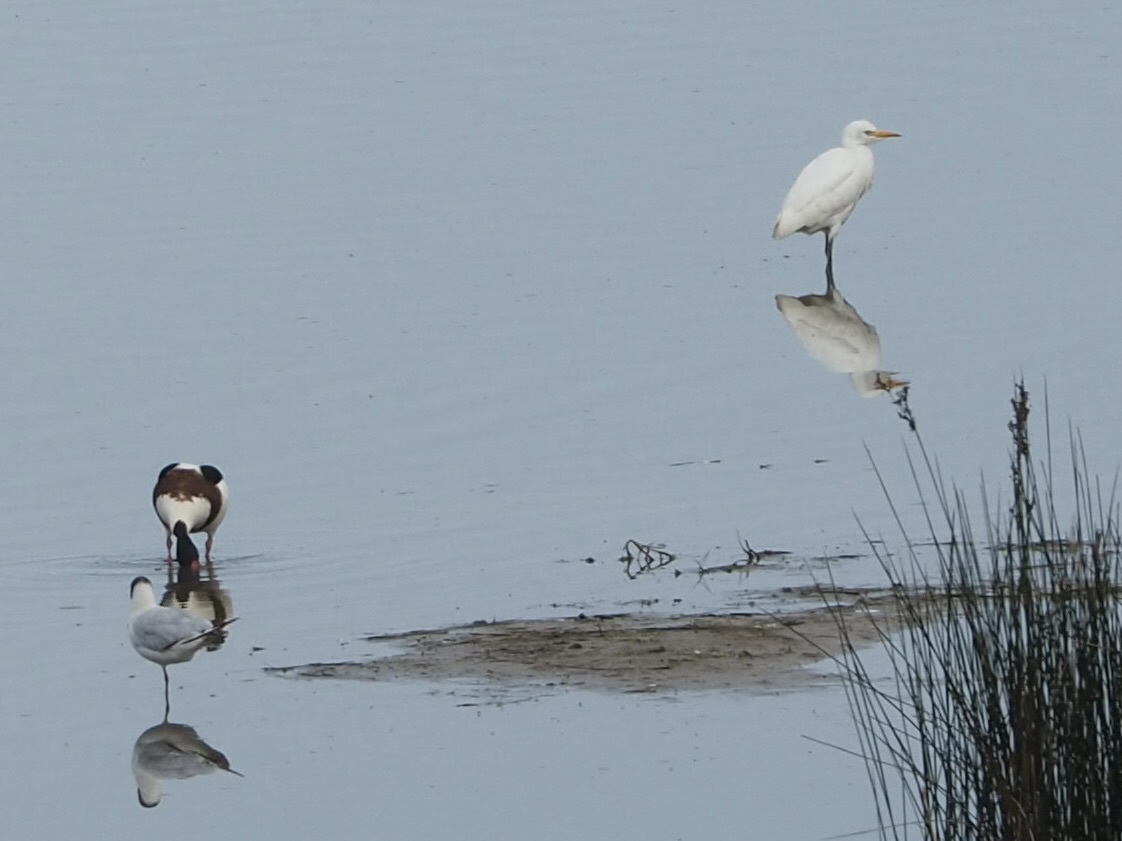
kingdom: Animalia
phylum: Chordata
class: Aves
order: Pelecaniformes
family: Ardeidae
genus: Bubulcus
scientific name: Bubulcus ibis
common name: Cattle egret
